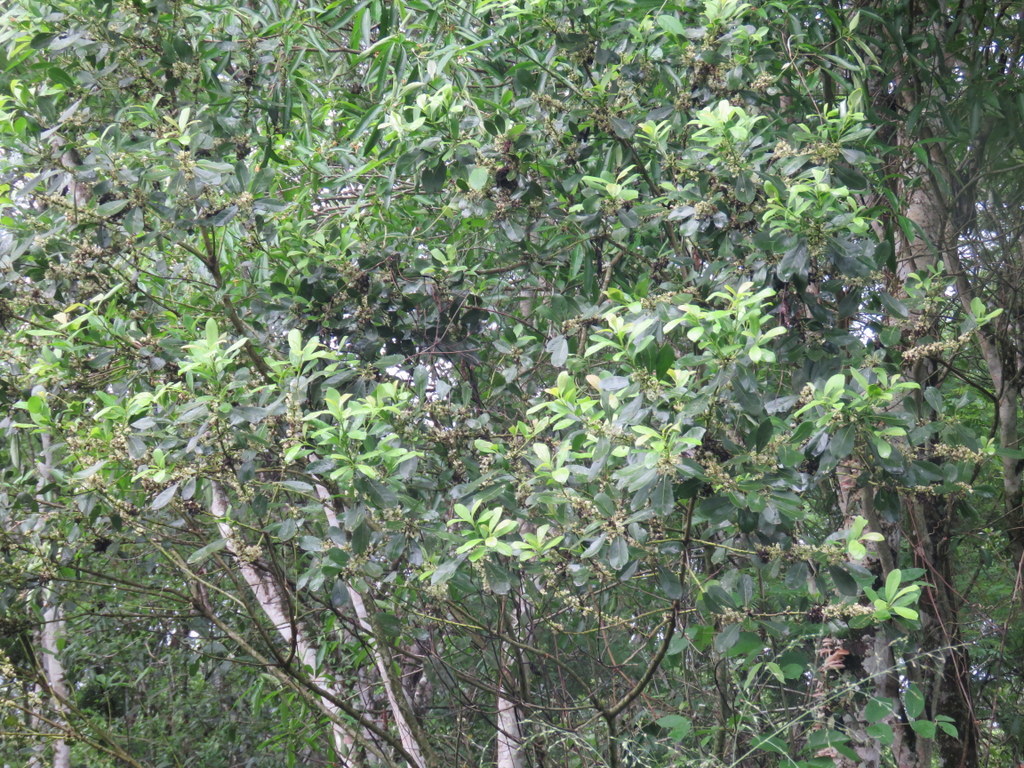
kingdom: Plantae
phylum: Tracheophyta
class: Magnoliopsida
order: Aquifoliales
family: Aquifoliaceae
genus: Ilex
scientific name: Ilex paraguariensis
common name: Paraguay tea
